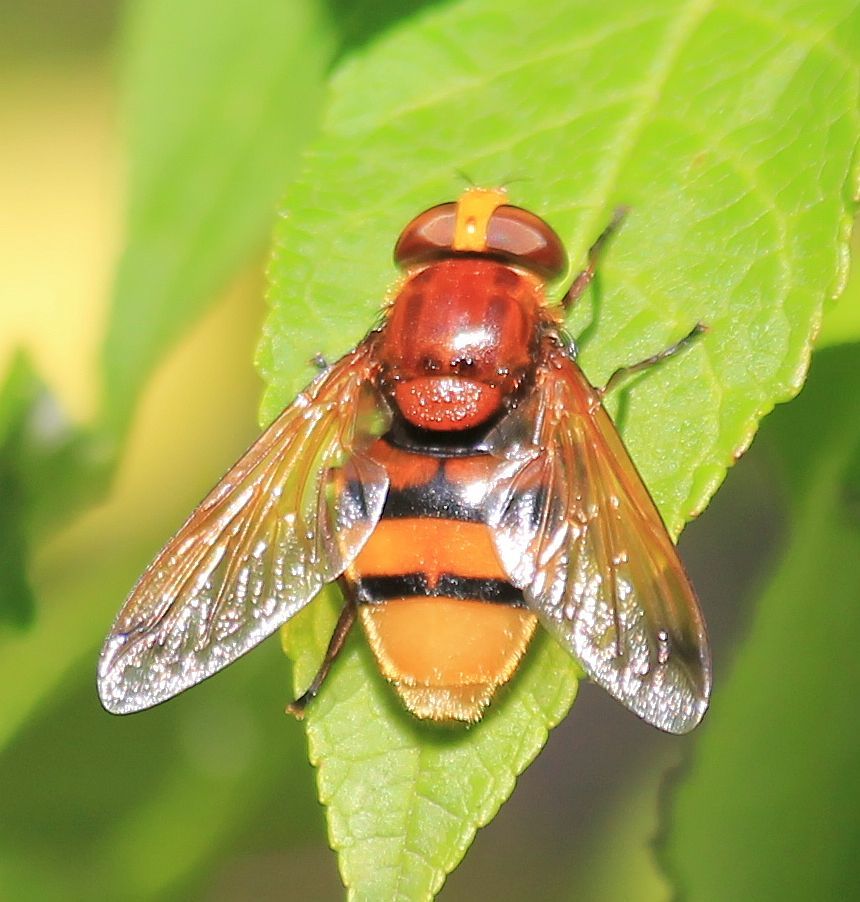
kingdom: Animalia
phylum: Arthropoda
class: Insecta
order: Diptera
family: Syrphidae
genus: Volucella
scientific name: Volucella zonaria
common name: Hornet hoverfly
